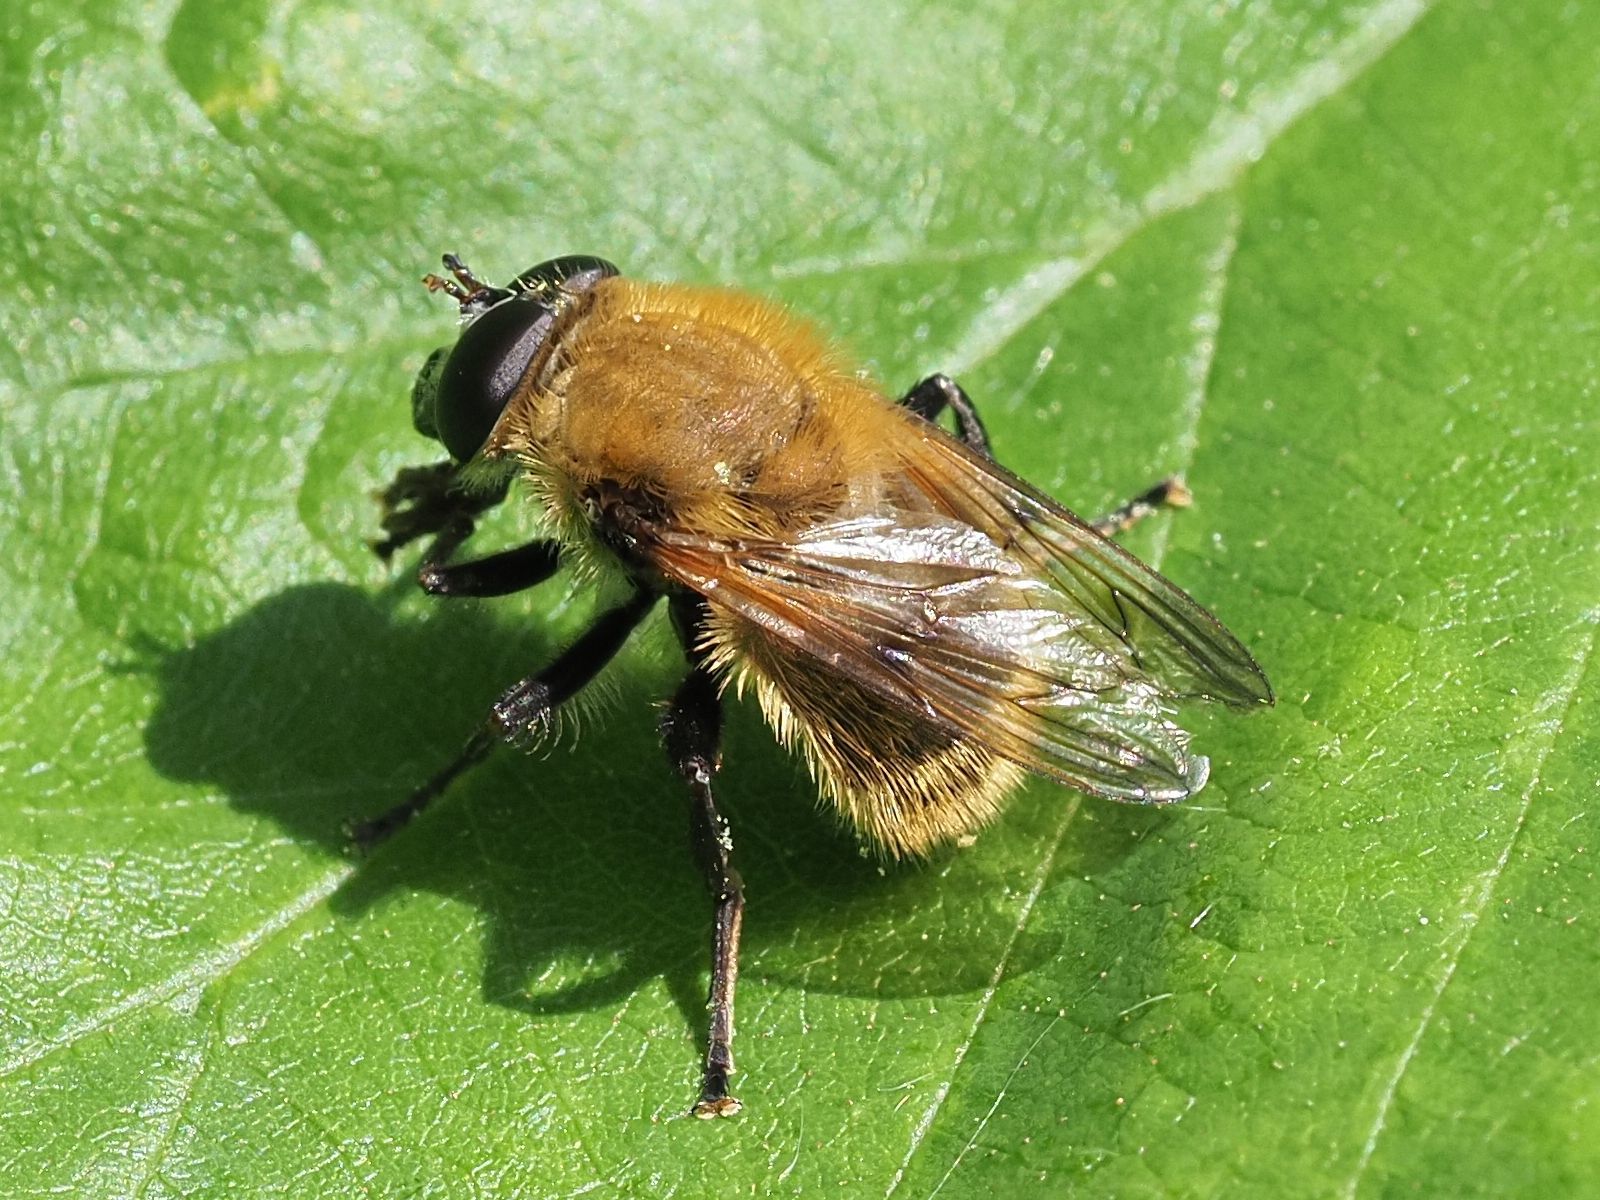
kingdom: Animalia
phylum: Arthropoda
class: Insecta
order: Diptera
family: Syrphidae
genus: Criorhina
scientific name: Criorhina berberina
